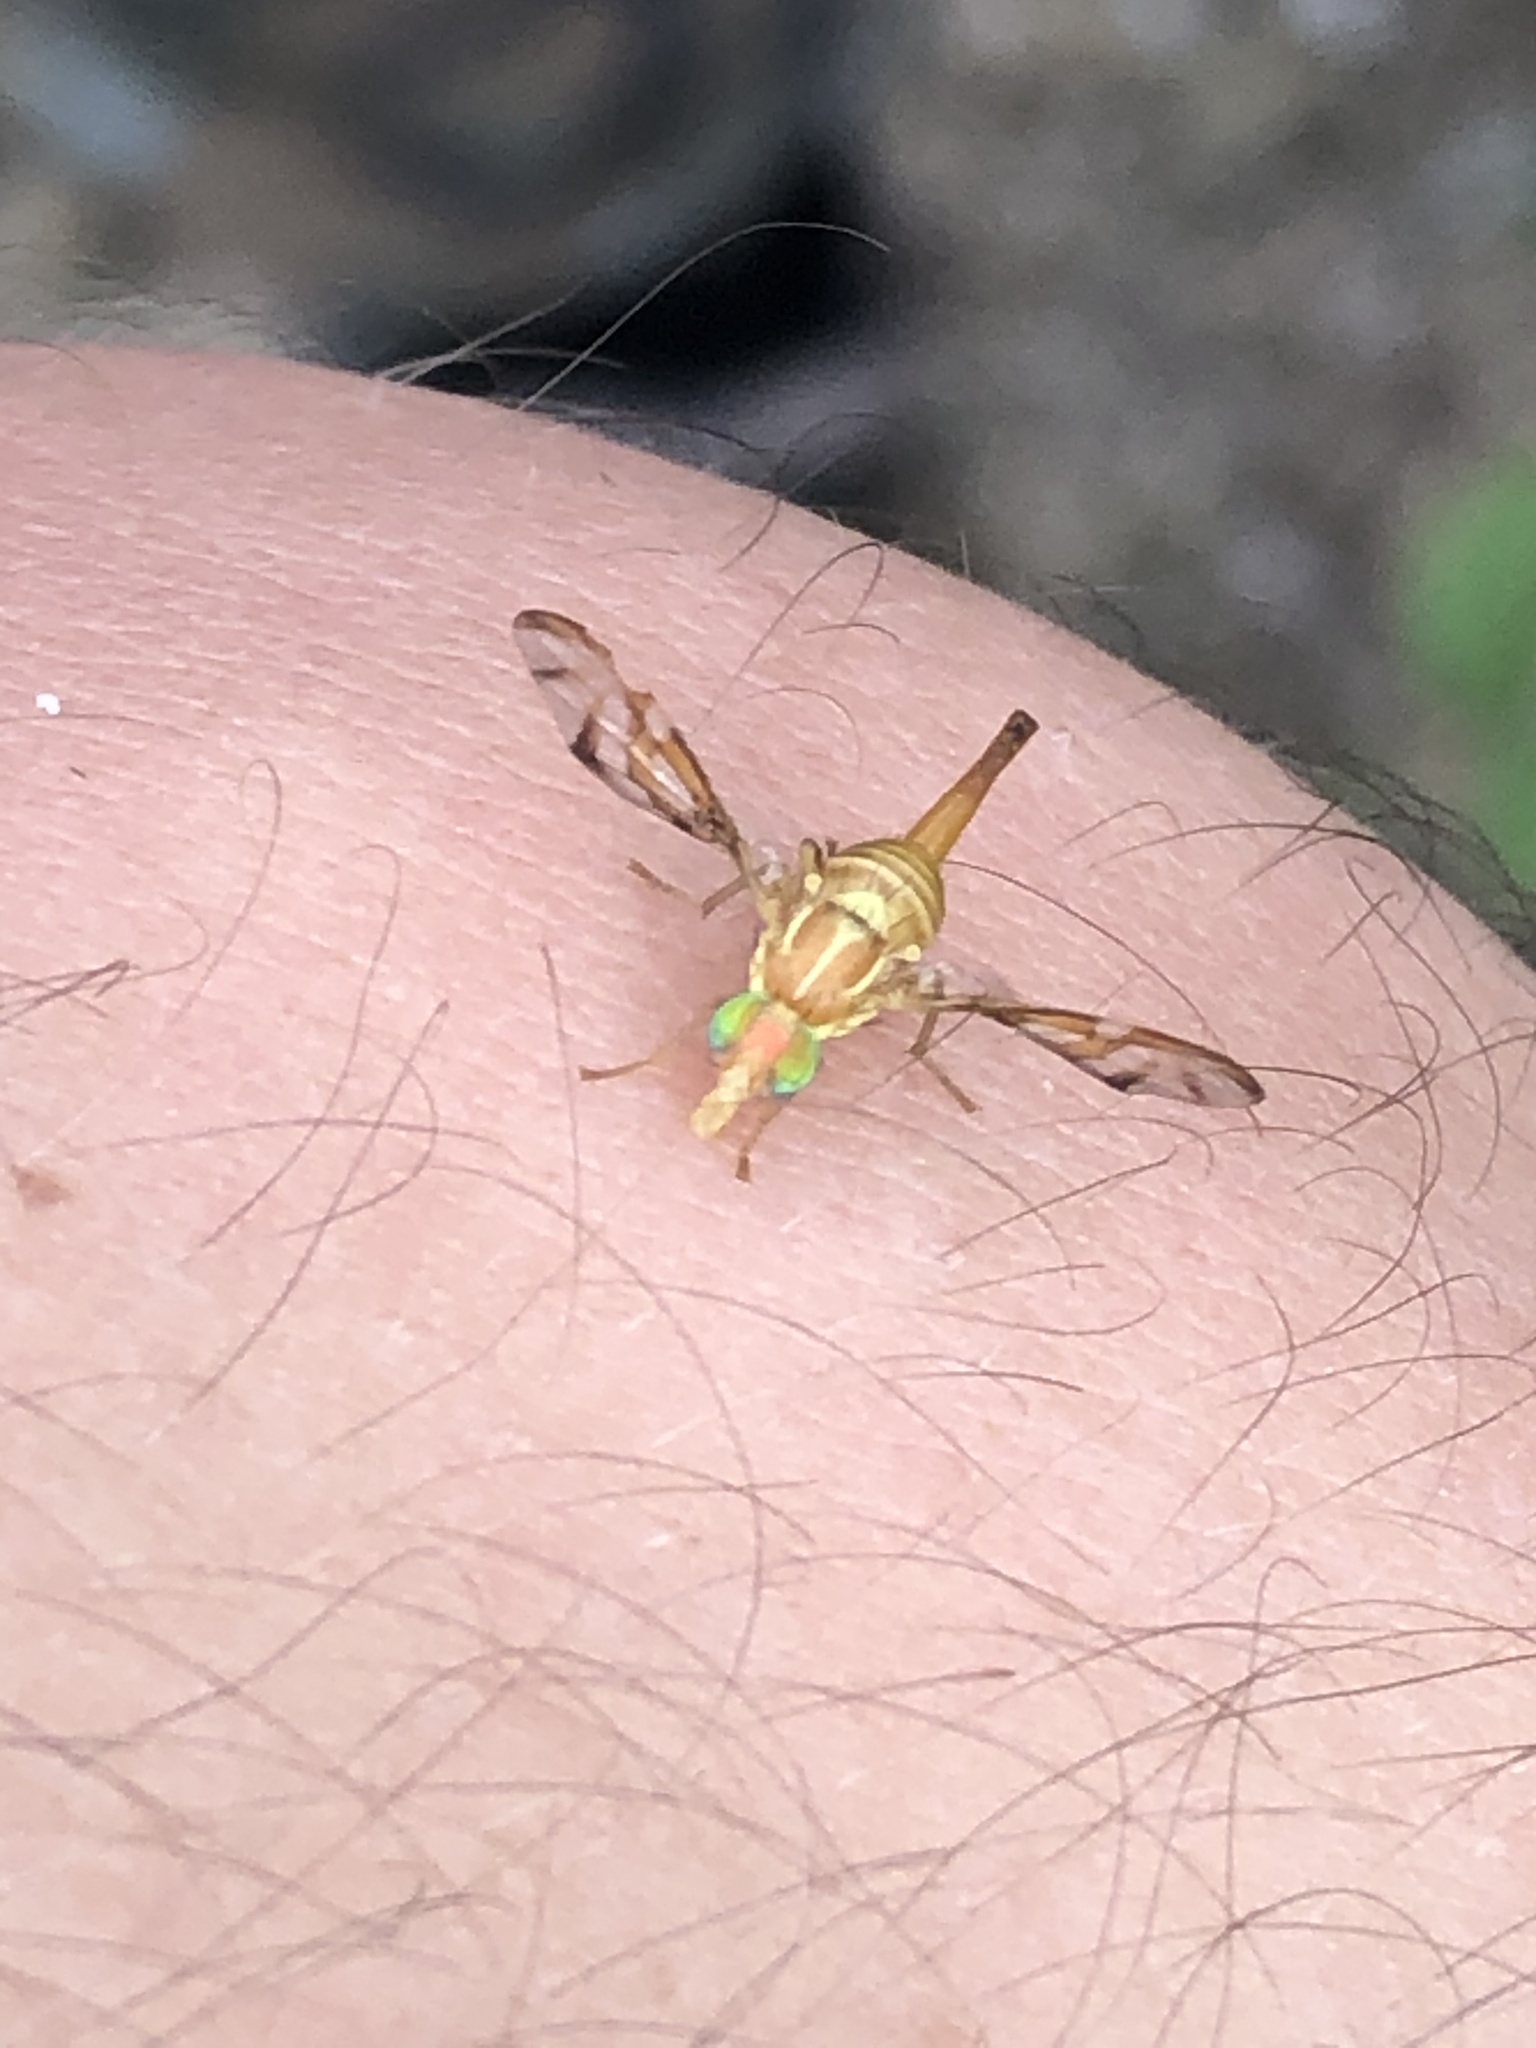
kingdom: Animalia
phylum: Arthropoda
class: Insecta
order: Diptera
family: Tephritidae
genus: Anastrepha
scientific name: Anastrepha ludens
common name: Mexican fruit fly
